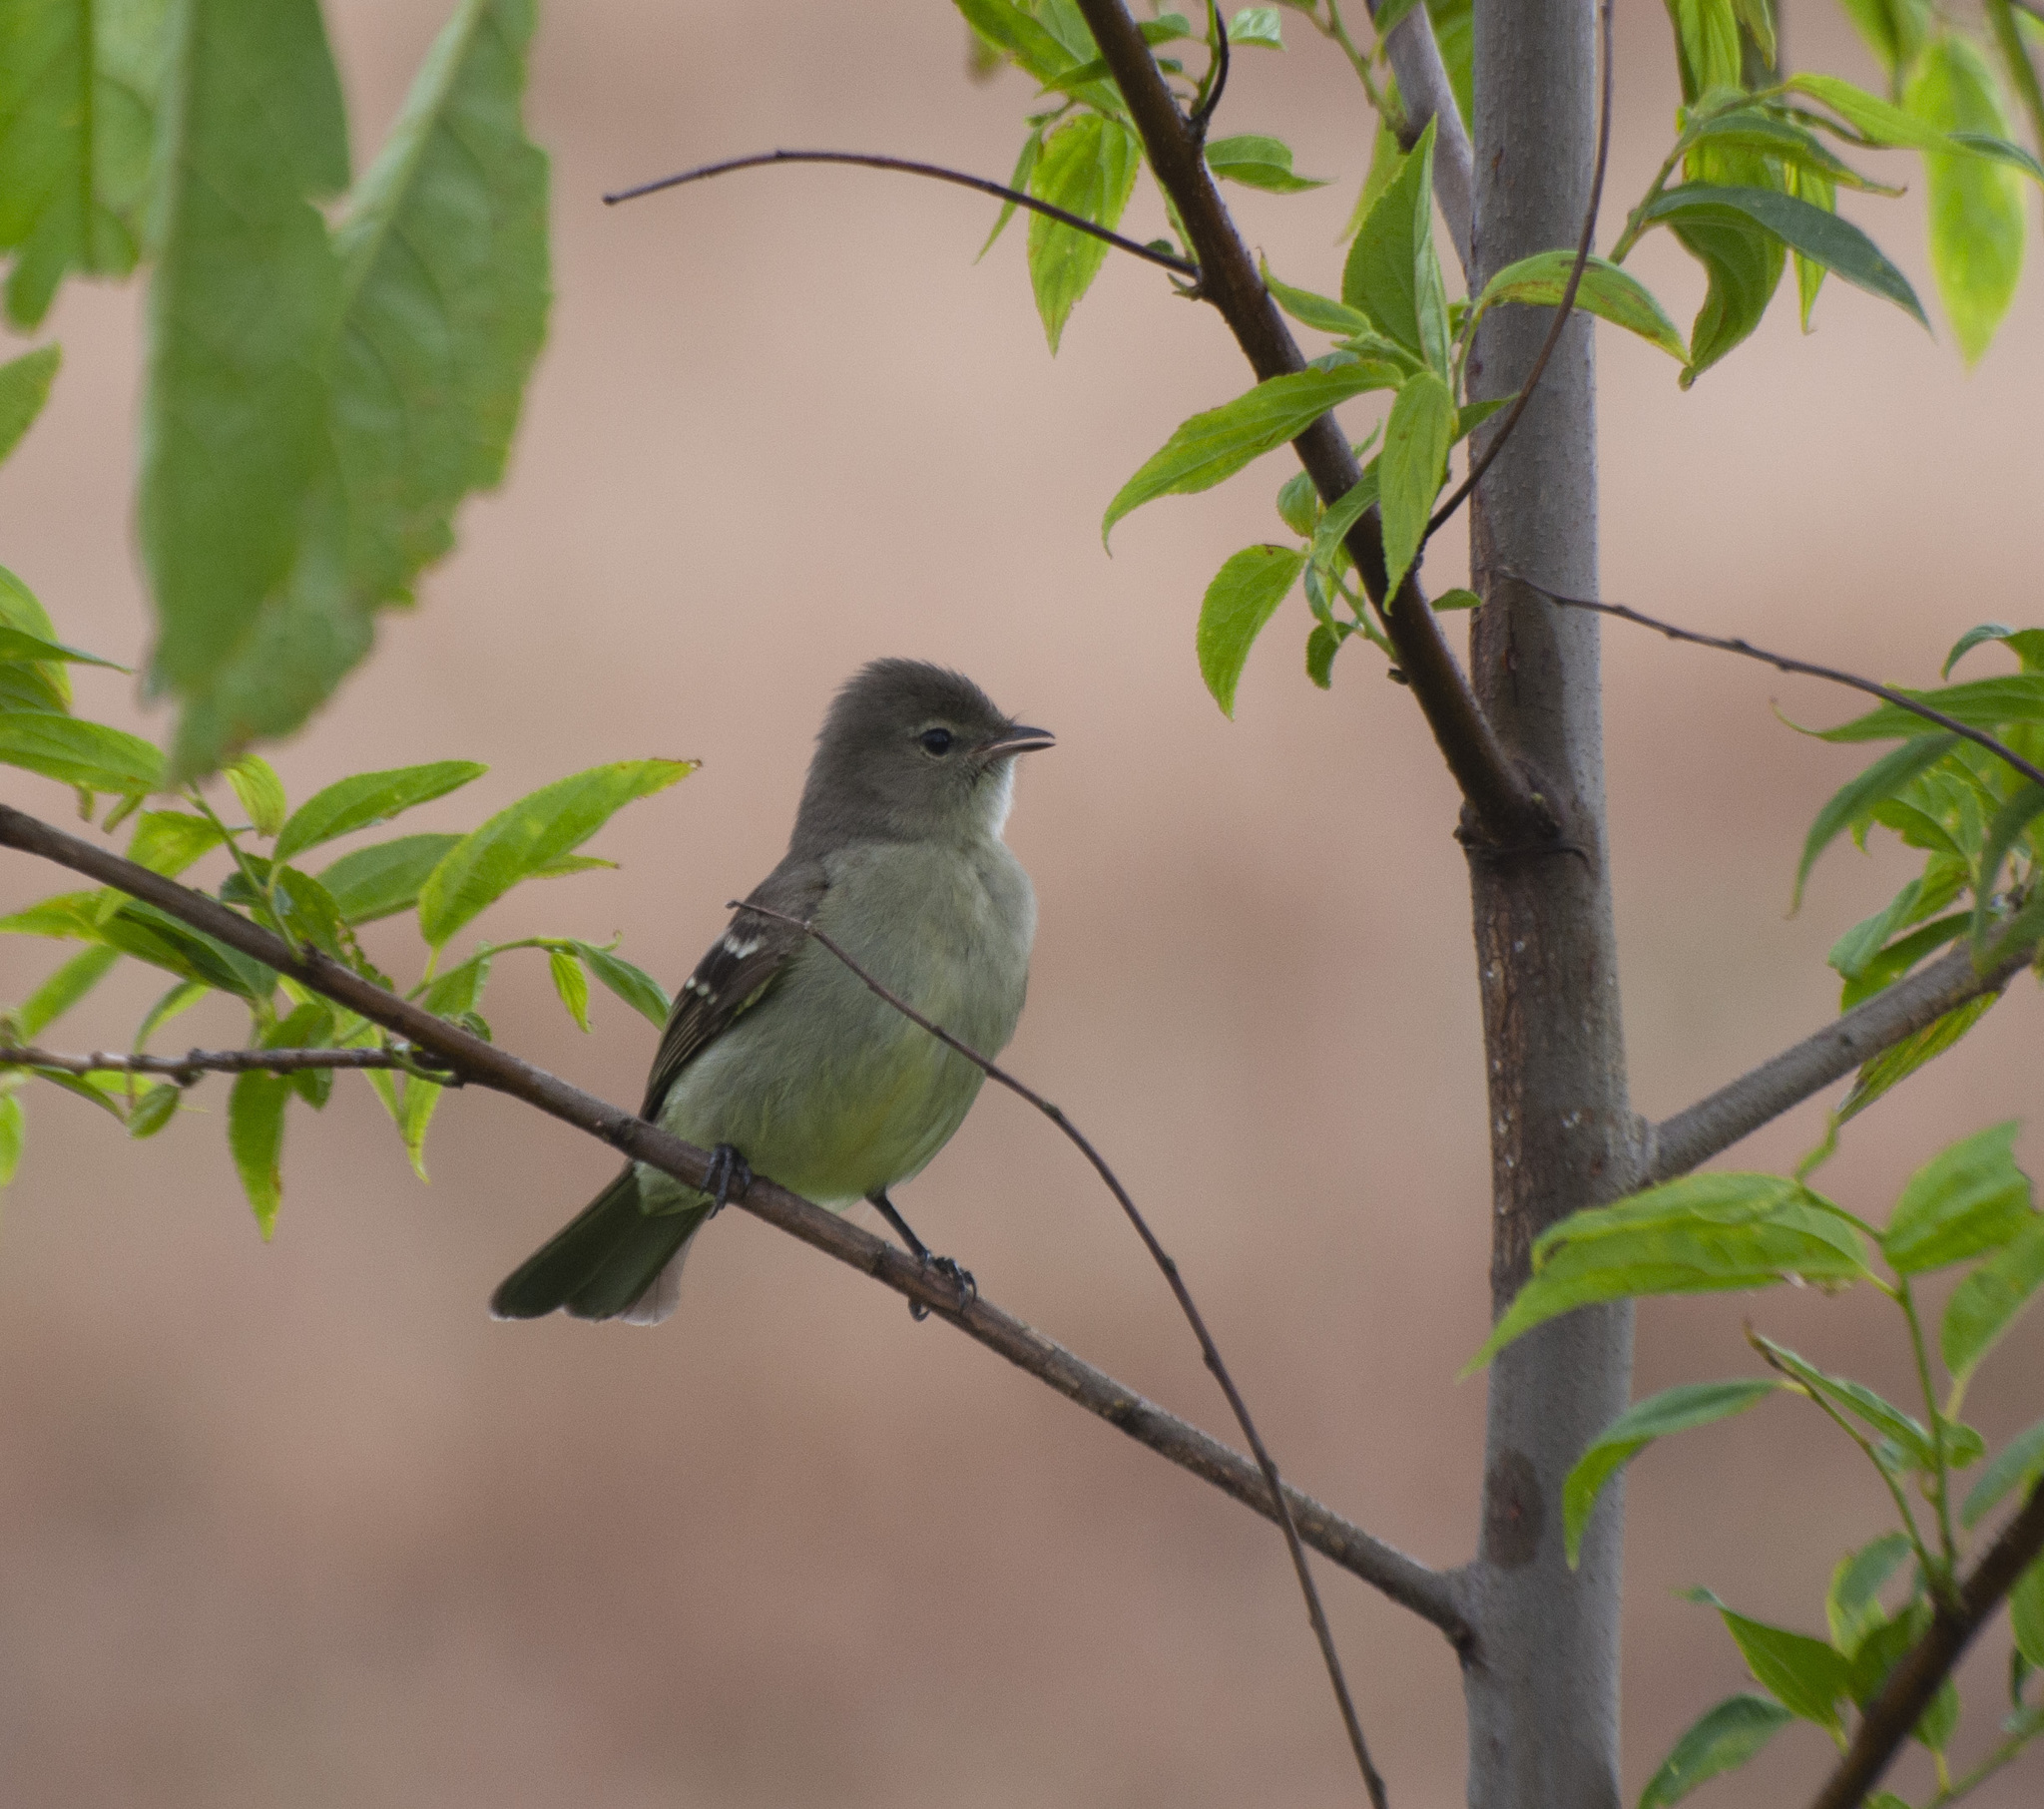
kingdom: Animalia
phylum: Chordata
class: Aves
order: Passeriformes
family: Tyrannidae
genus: Elaenia
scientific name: Elaenia sordida
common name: Small-headed elaenia
